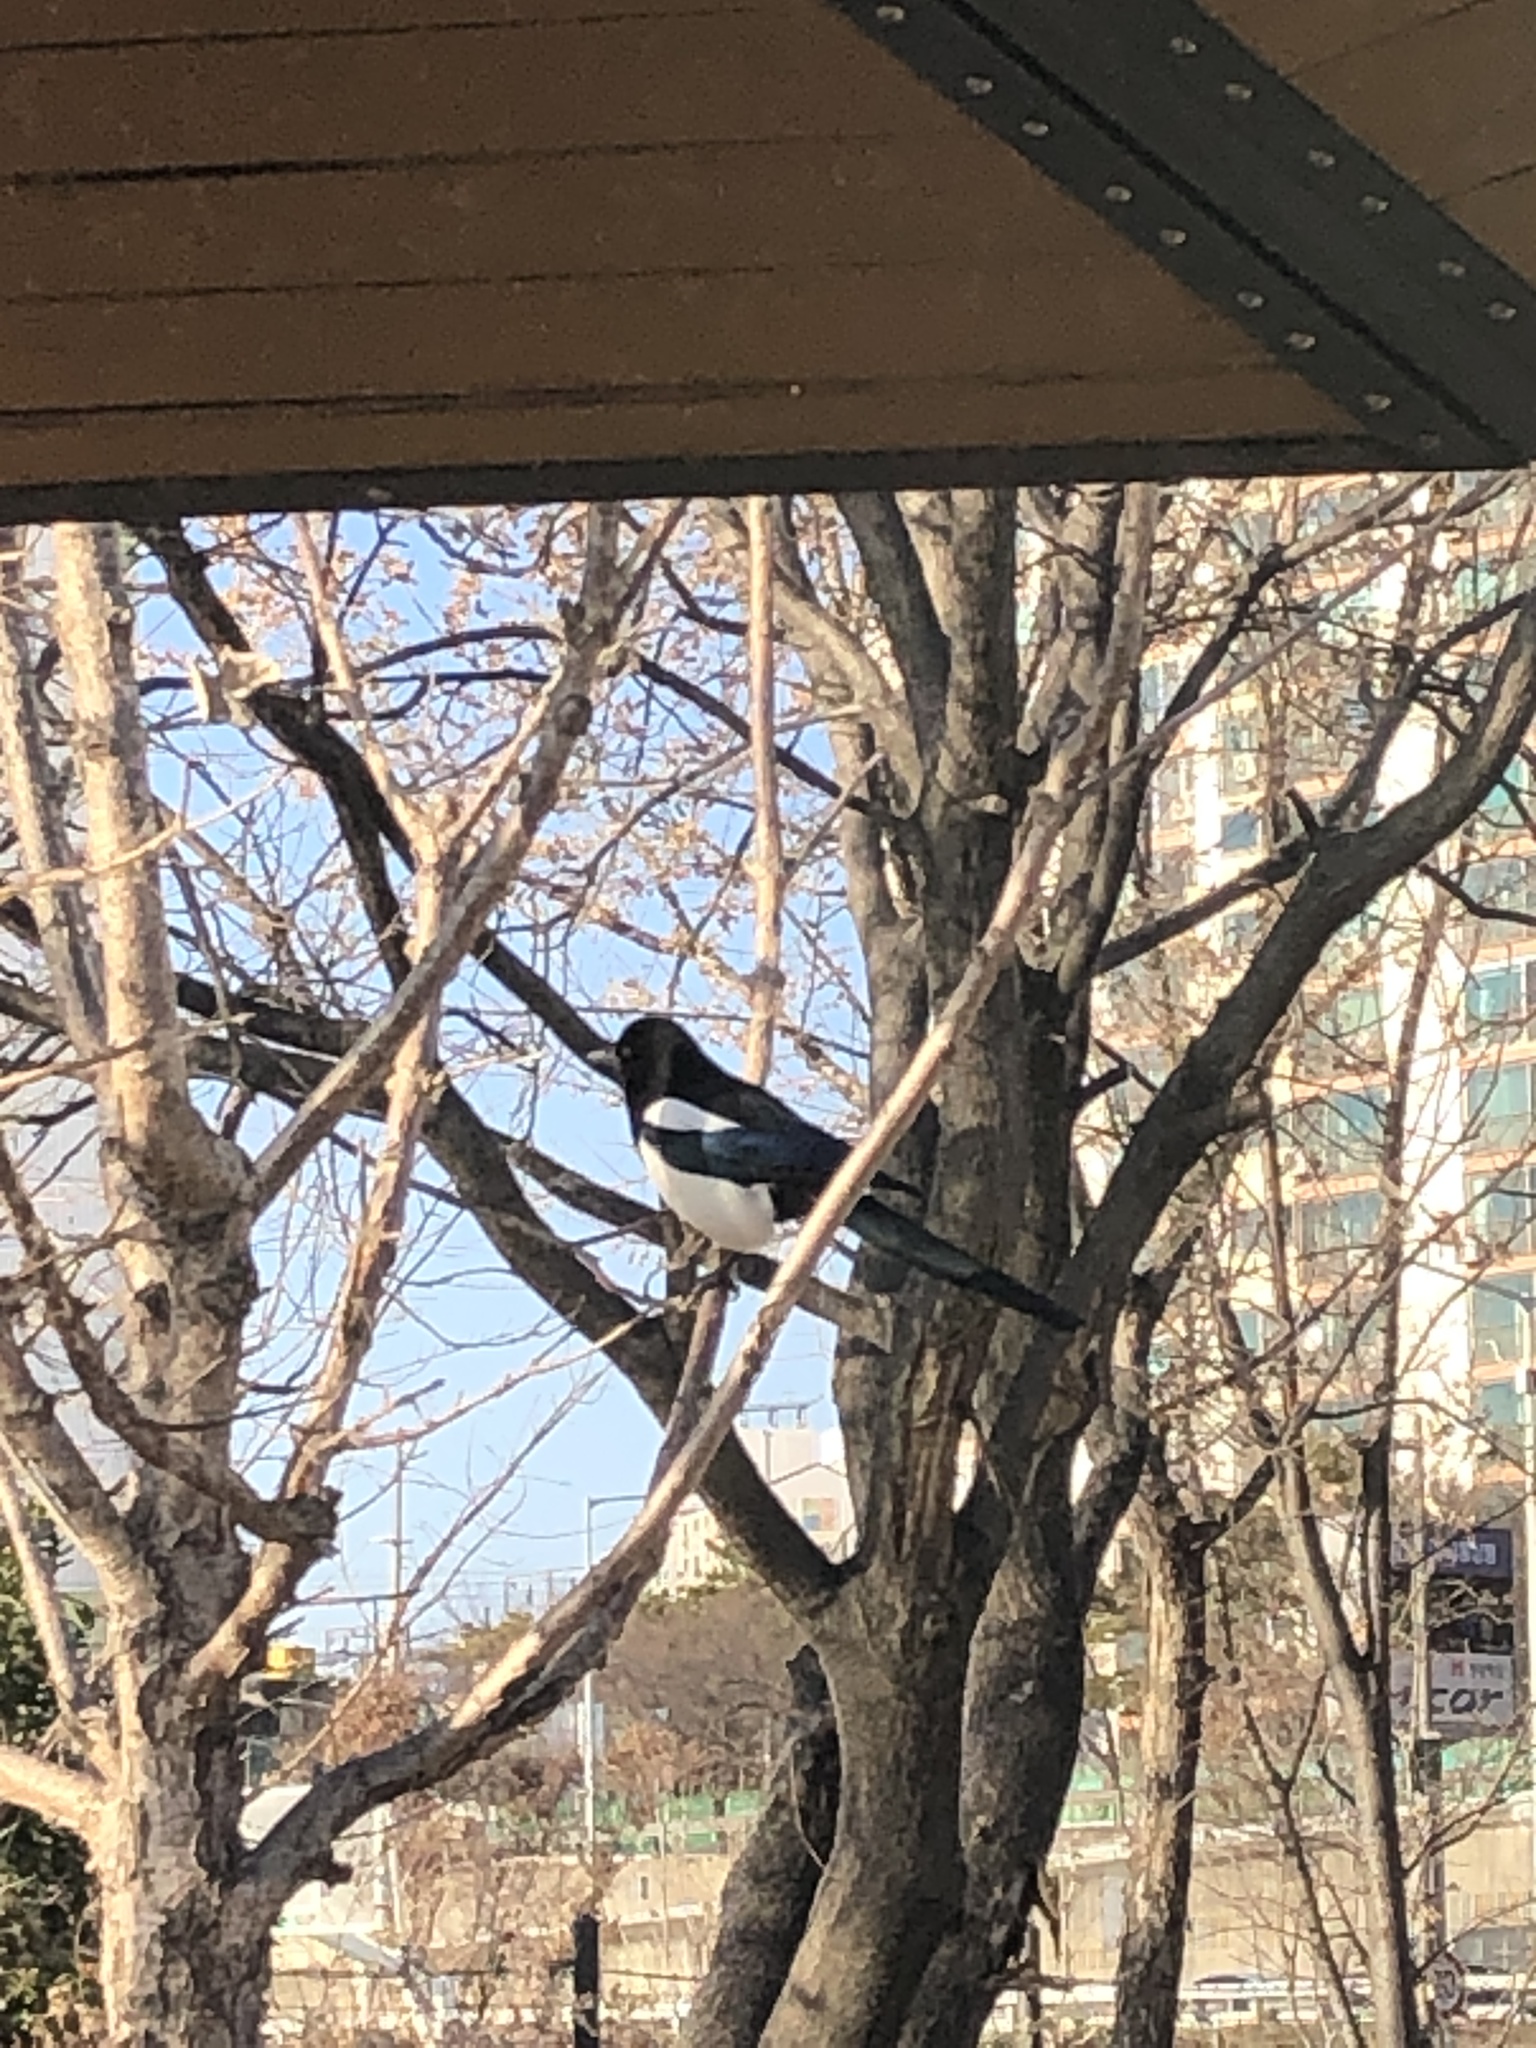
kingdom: Animalia
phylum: Chordata
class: Aves
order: Passeriformes
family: Corvidae
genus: Pica
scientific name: Pica serica
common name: Oriental magpie
